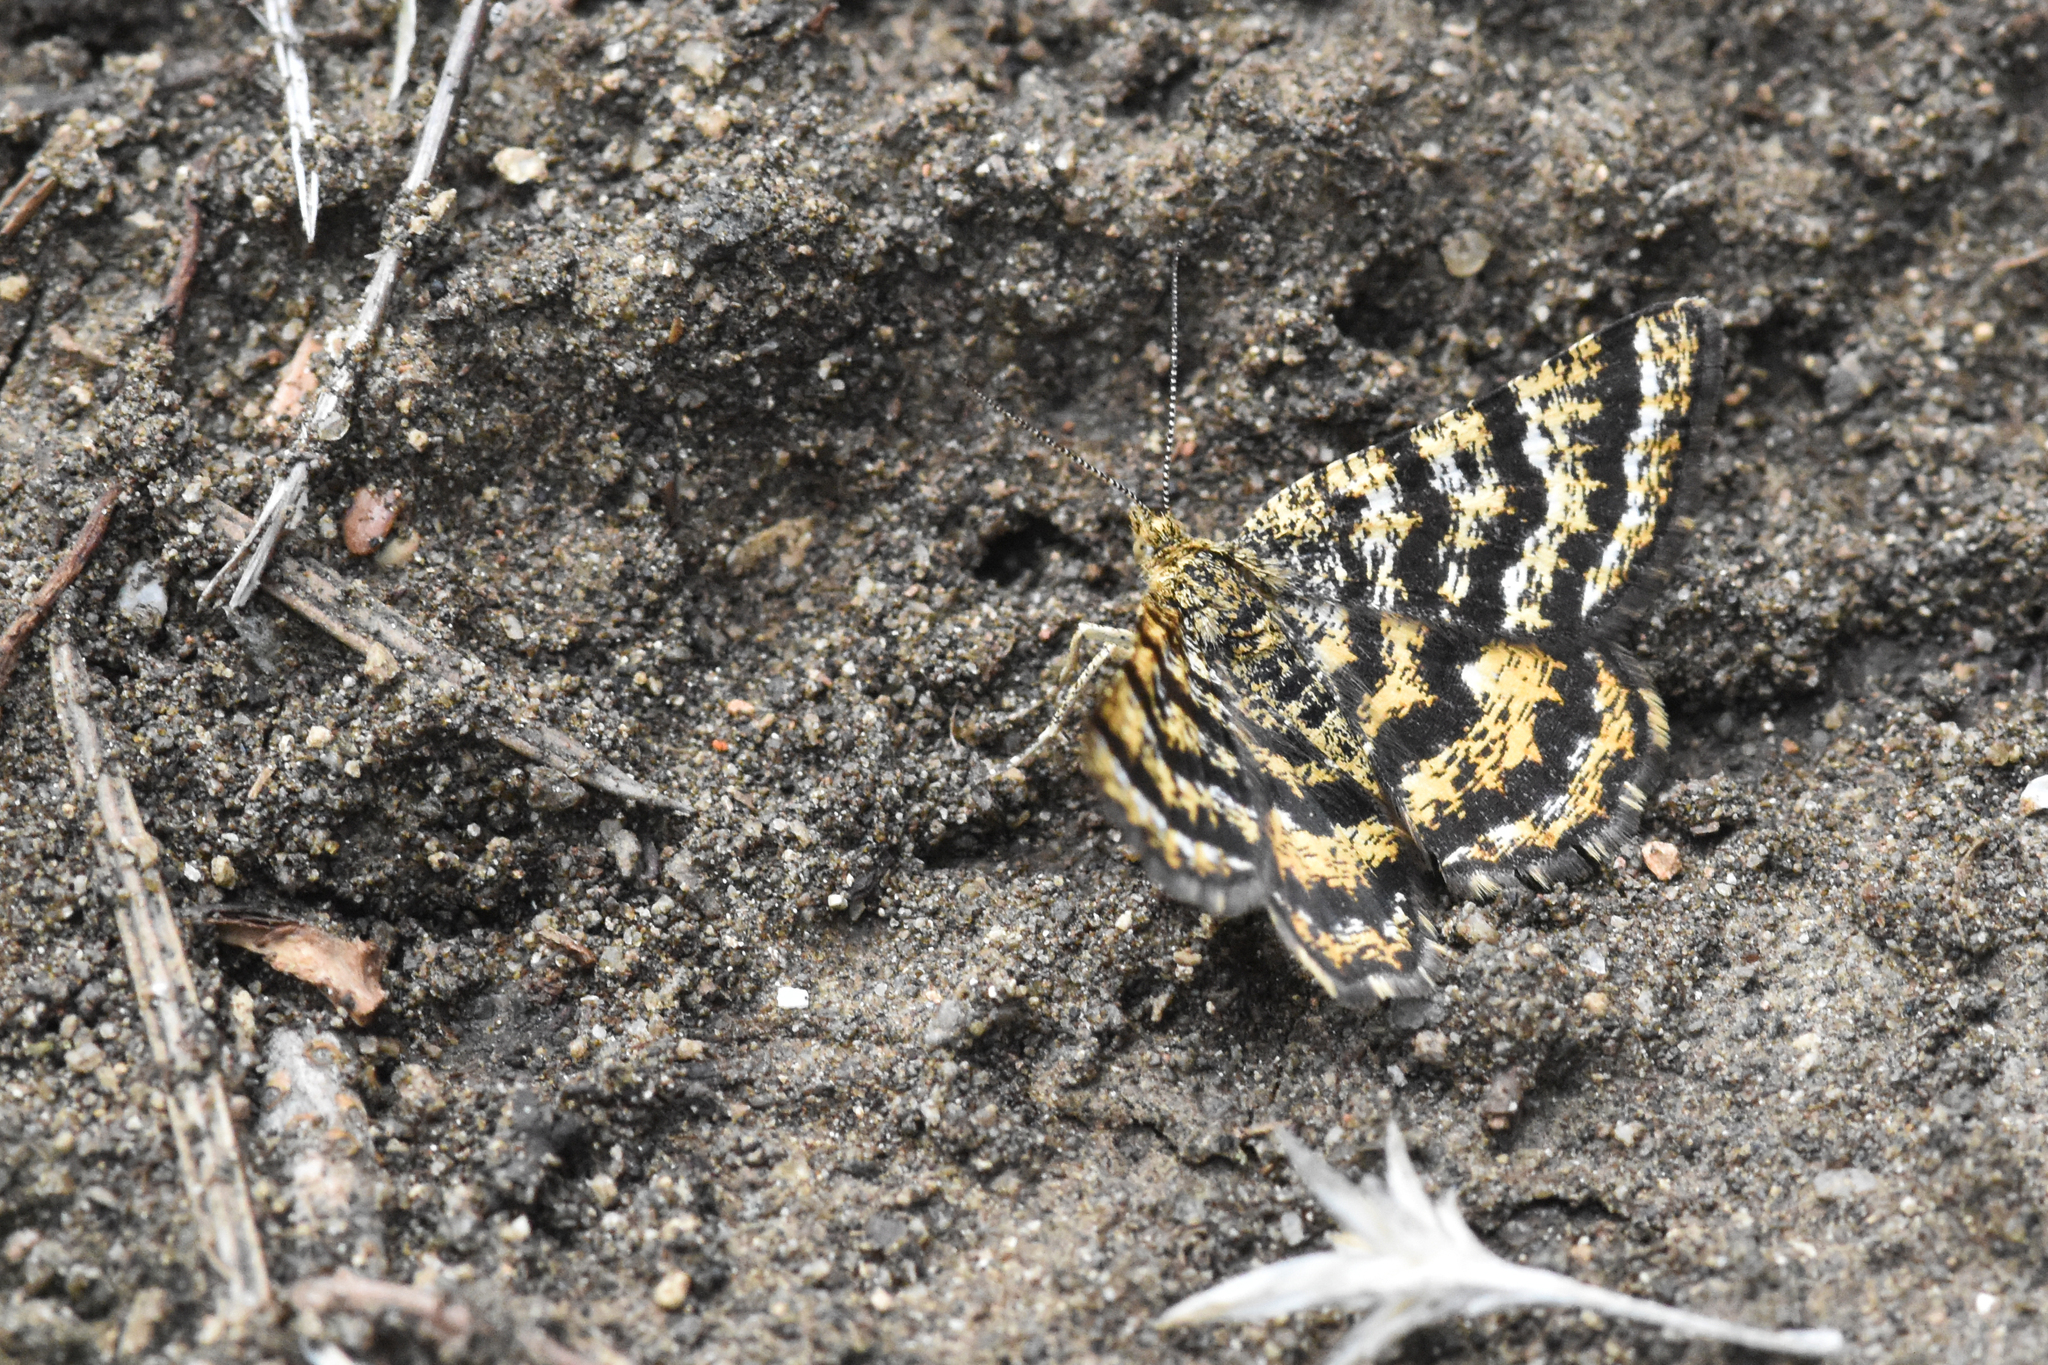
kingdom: Animalia
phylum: Arthropoda
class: Insecta
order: Lepidoptera
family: Geometridae
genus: Macaria
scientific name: Macaria truncataria
